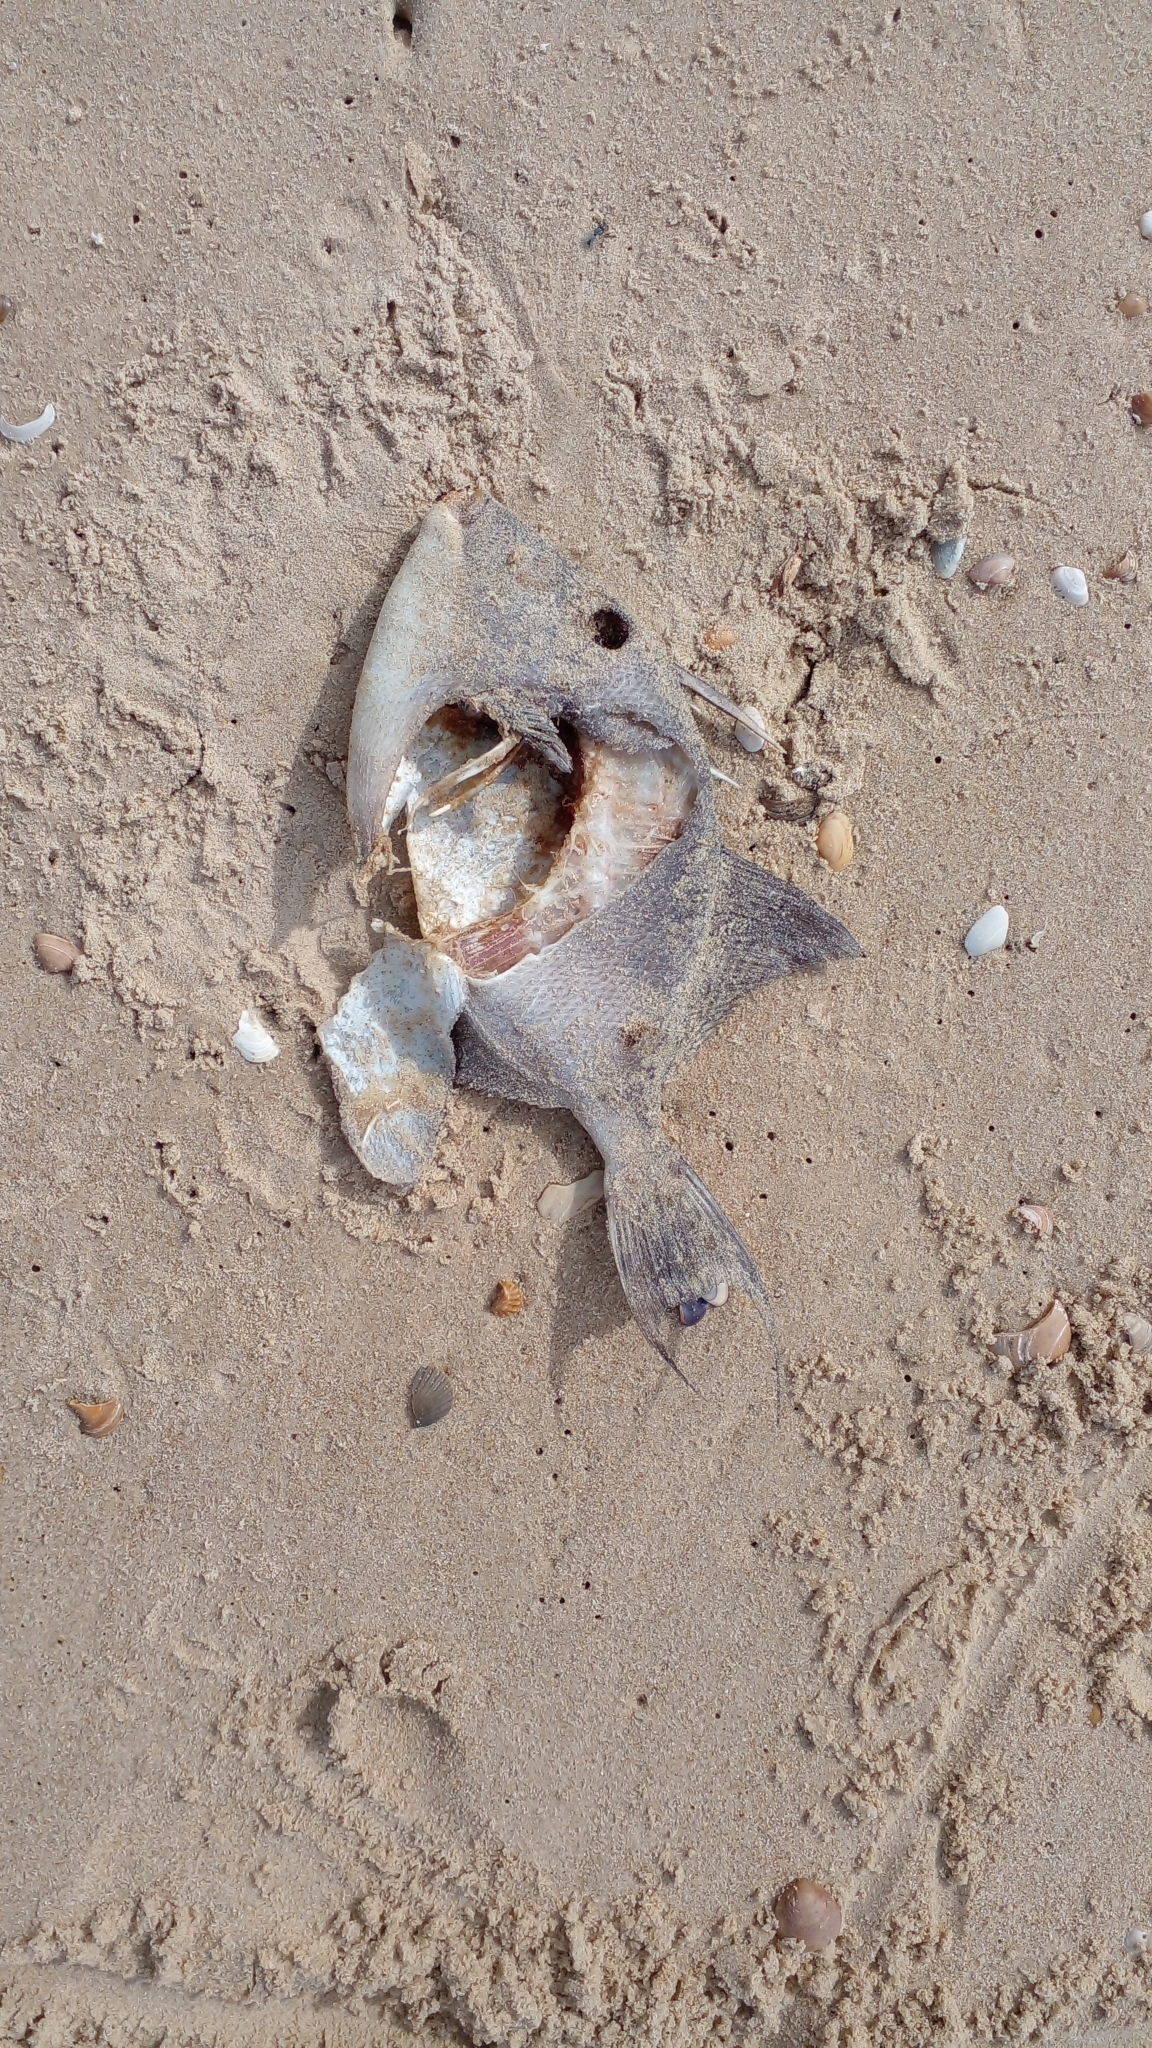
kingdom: Animalia
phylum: Chordata
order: Tetraodontiformes
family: Balistidae
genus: Balistes
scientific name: Balistes capriscus
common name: Grey triggerfish
